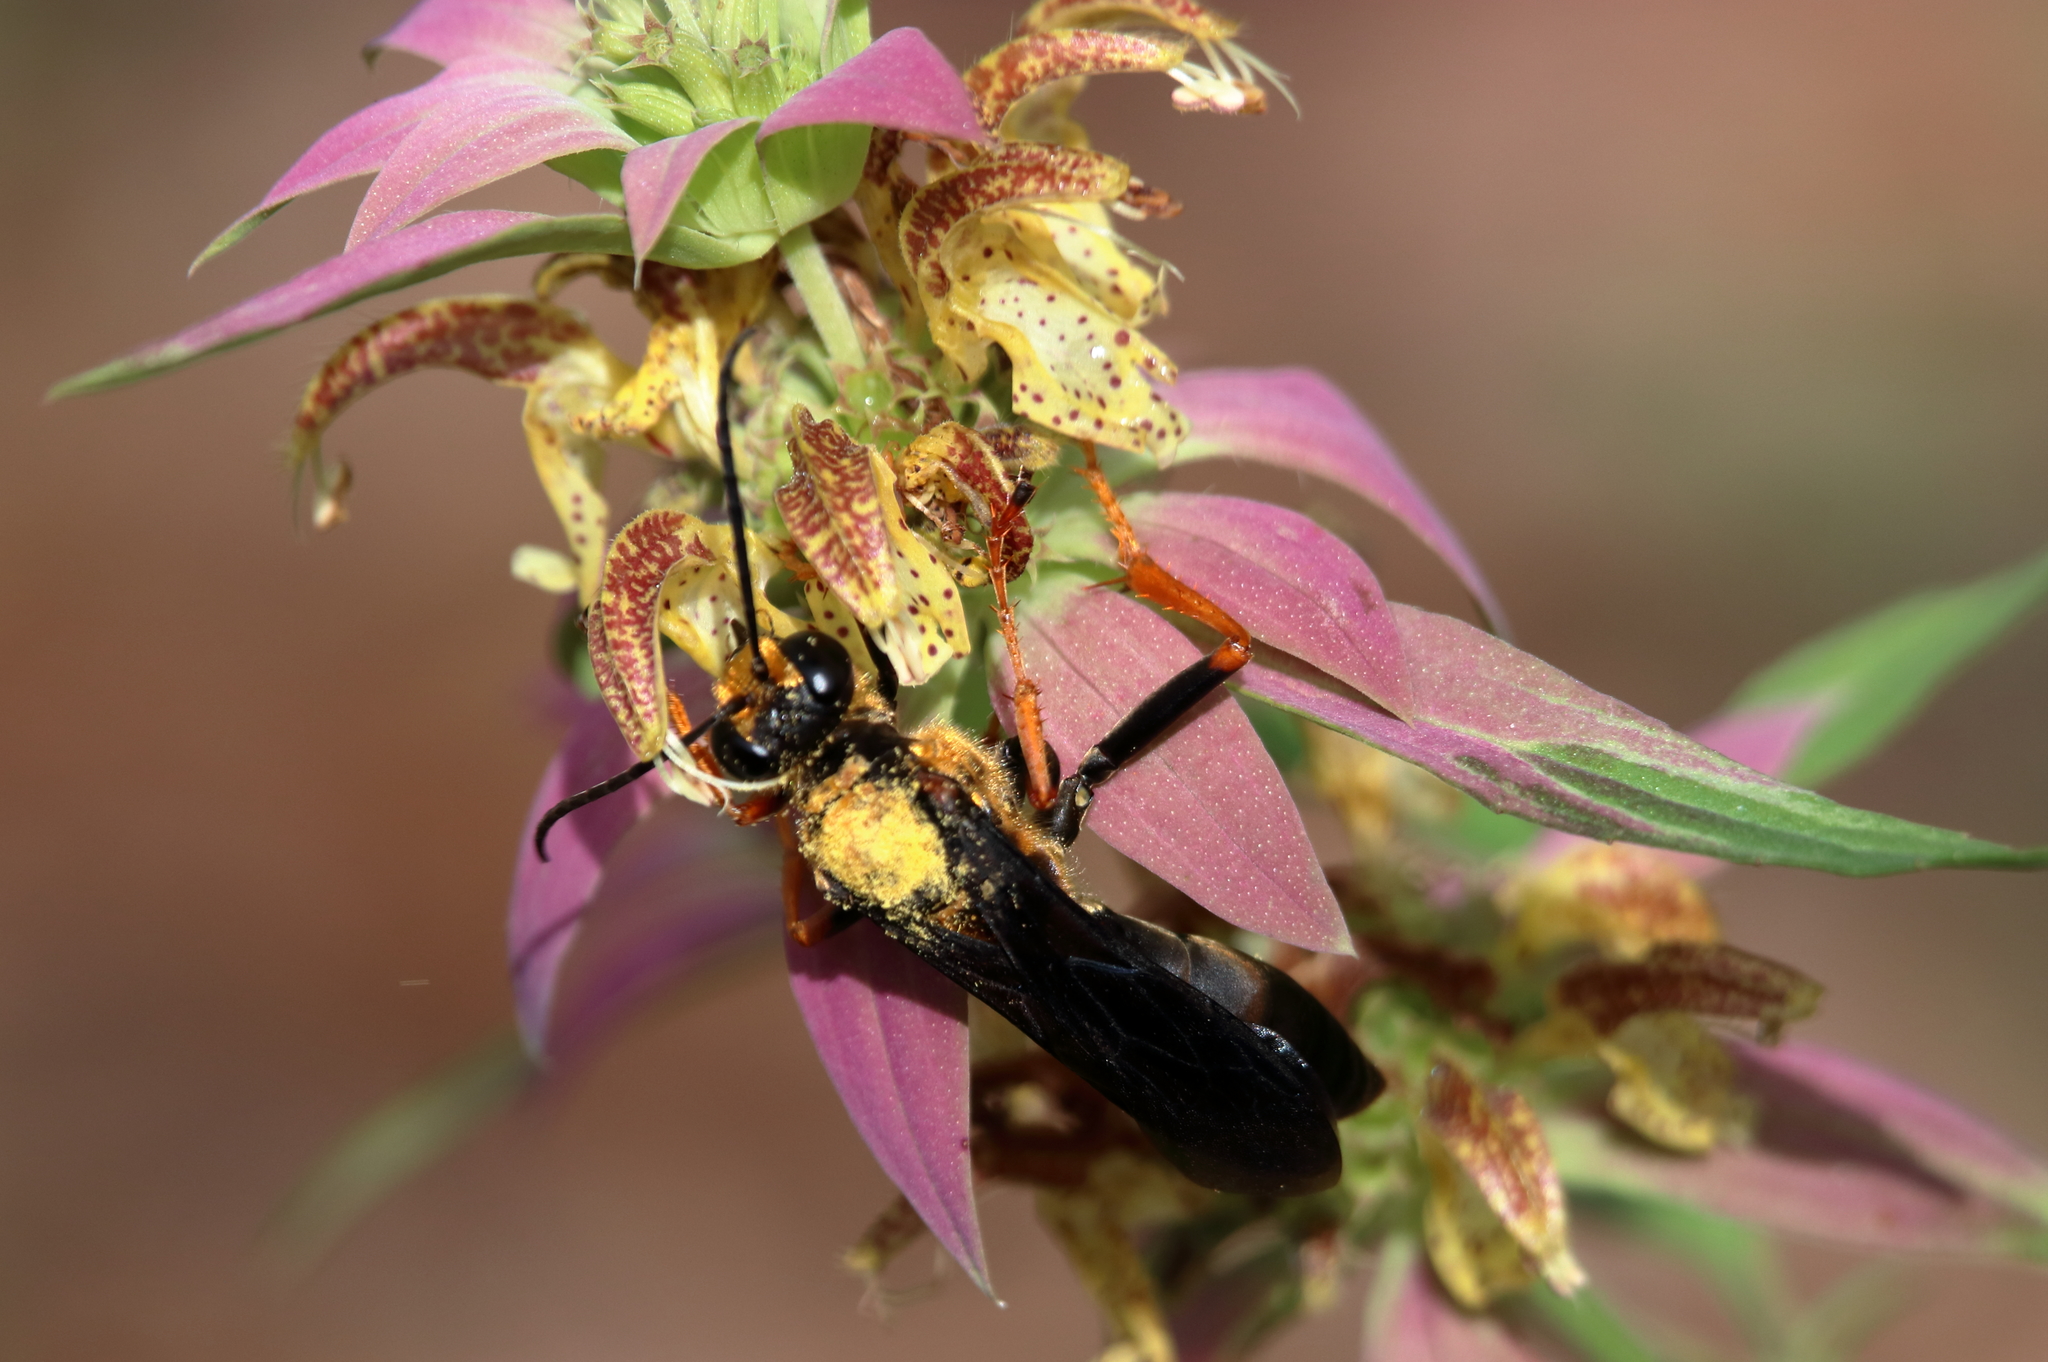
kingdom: Animalia
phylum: Arthropoda
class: Insecta
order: Hymenoptera
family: Sphecidae
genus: Sphex
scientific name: Sphex flavovestitus
